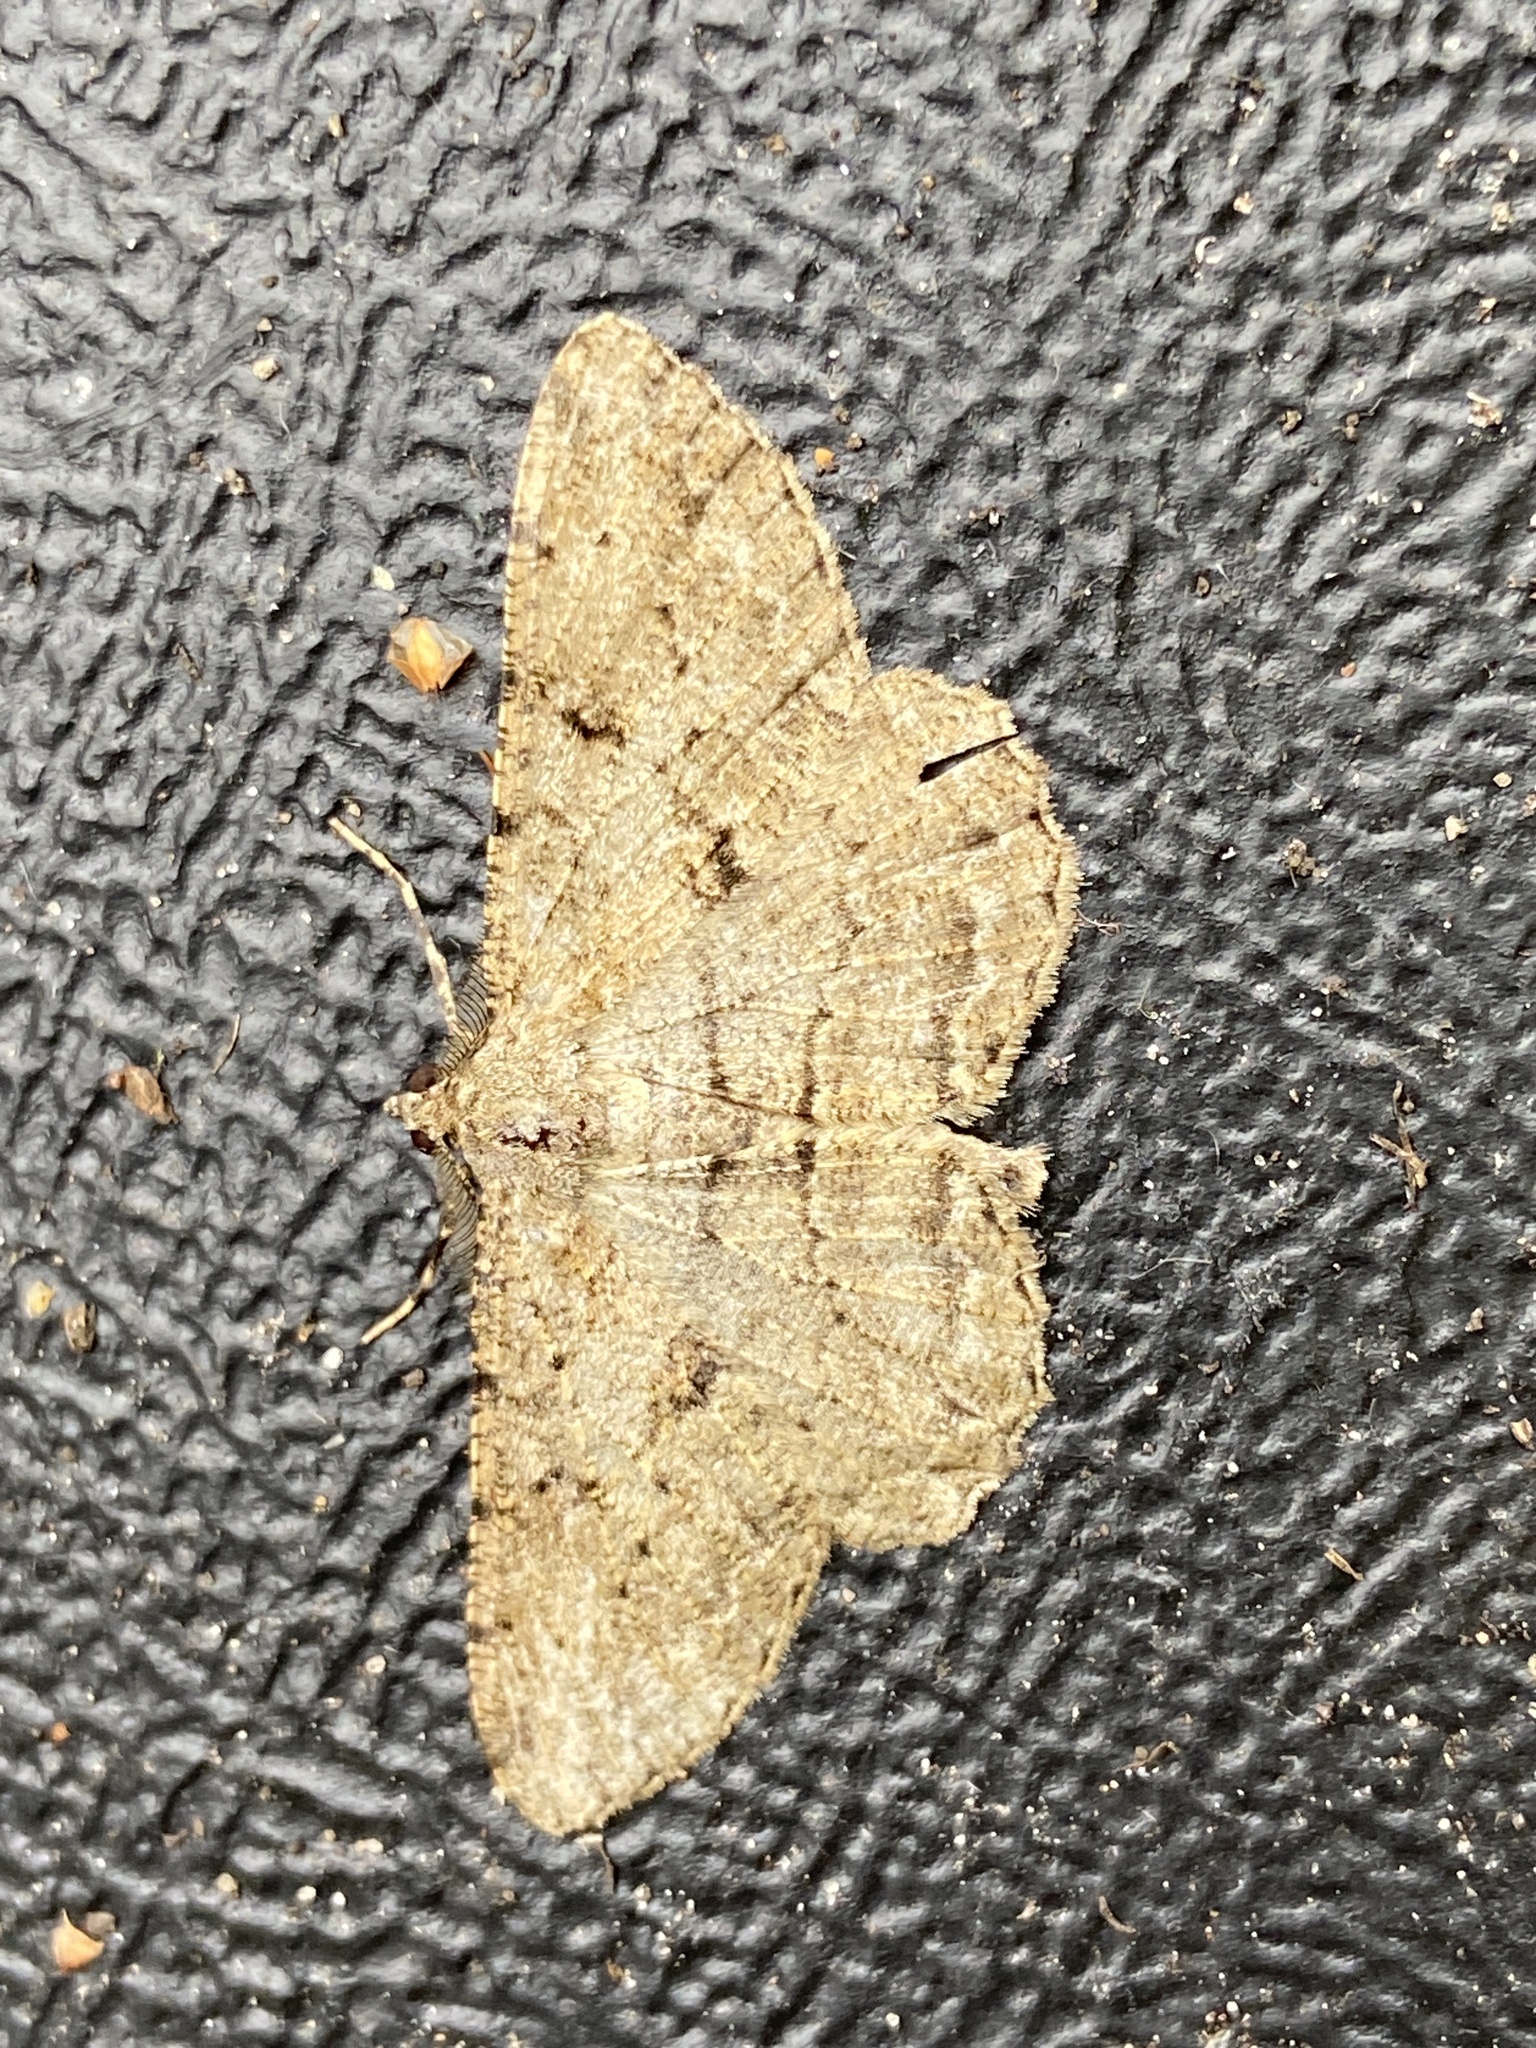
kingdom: Animalia
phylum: Arthropoda
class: Insecta
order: Lepidoptera
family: Geometridae
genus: Peribatodes
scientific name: Peribatodes rhomboidaria
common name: Willow beauty
